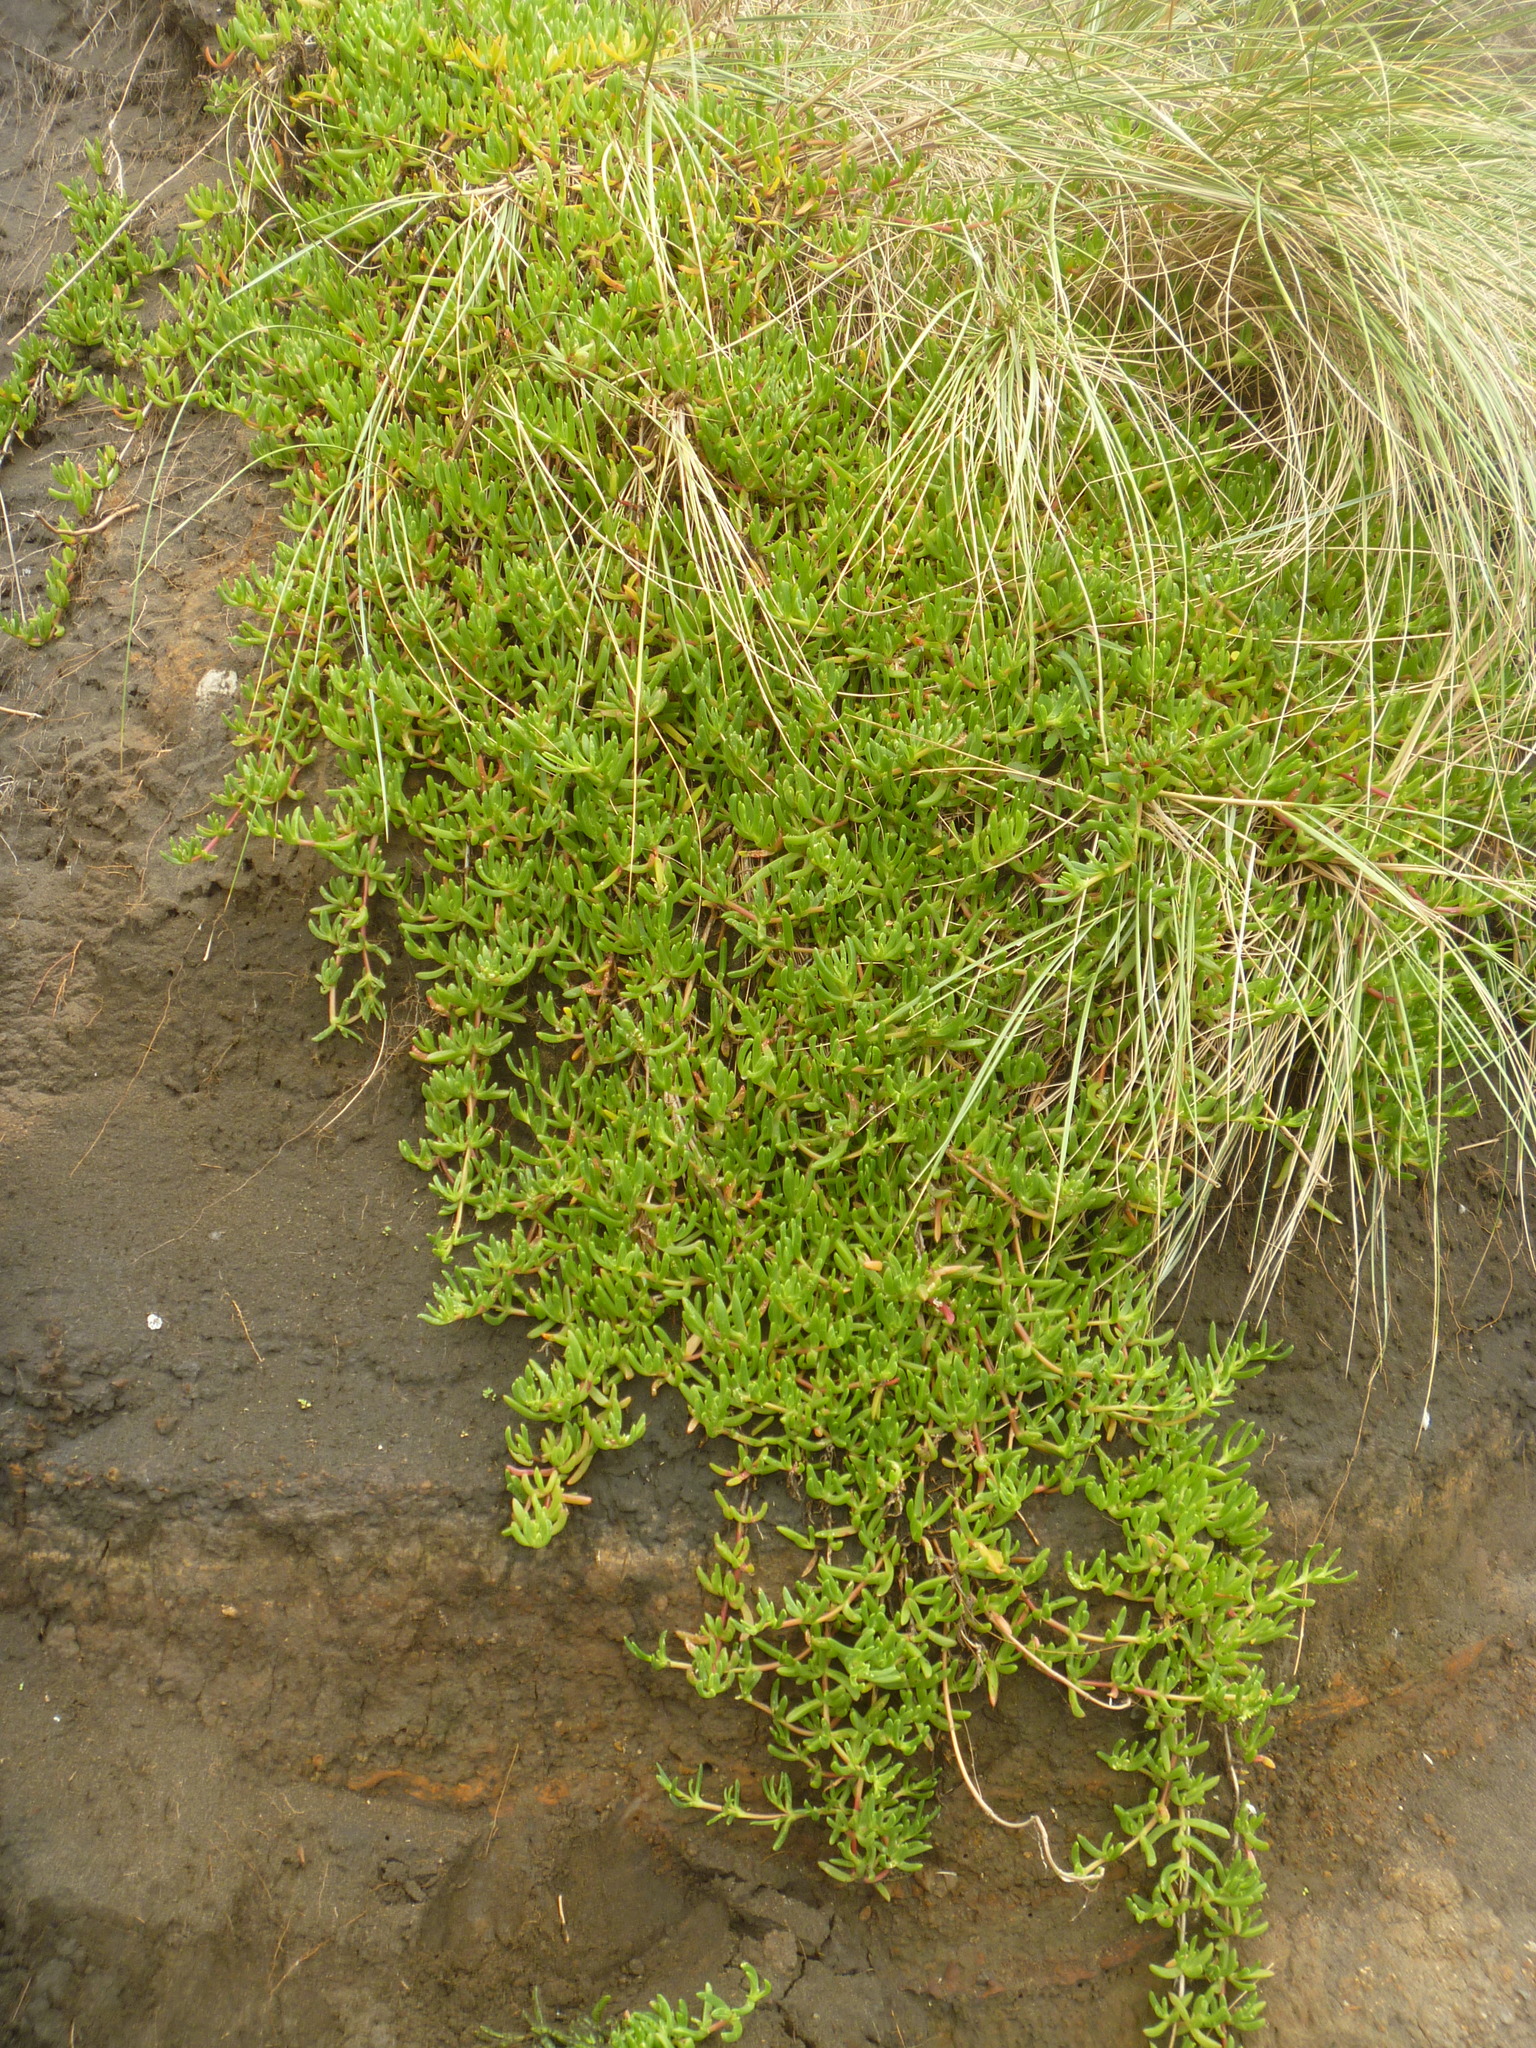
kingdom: Plantae
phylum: Tracheophyta
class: Magnoliopsida
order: Caryophyllales
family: Aizoaceae
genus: Disphyma
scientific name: Disphyma australe
